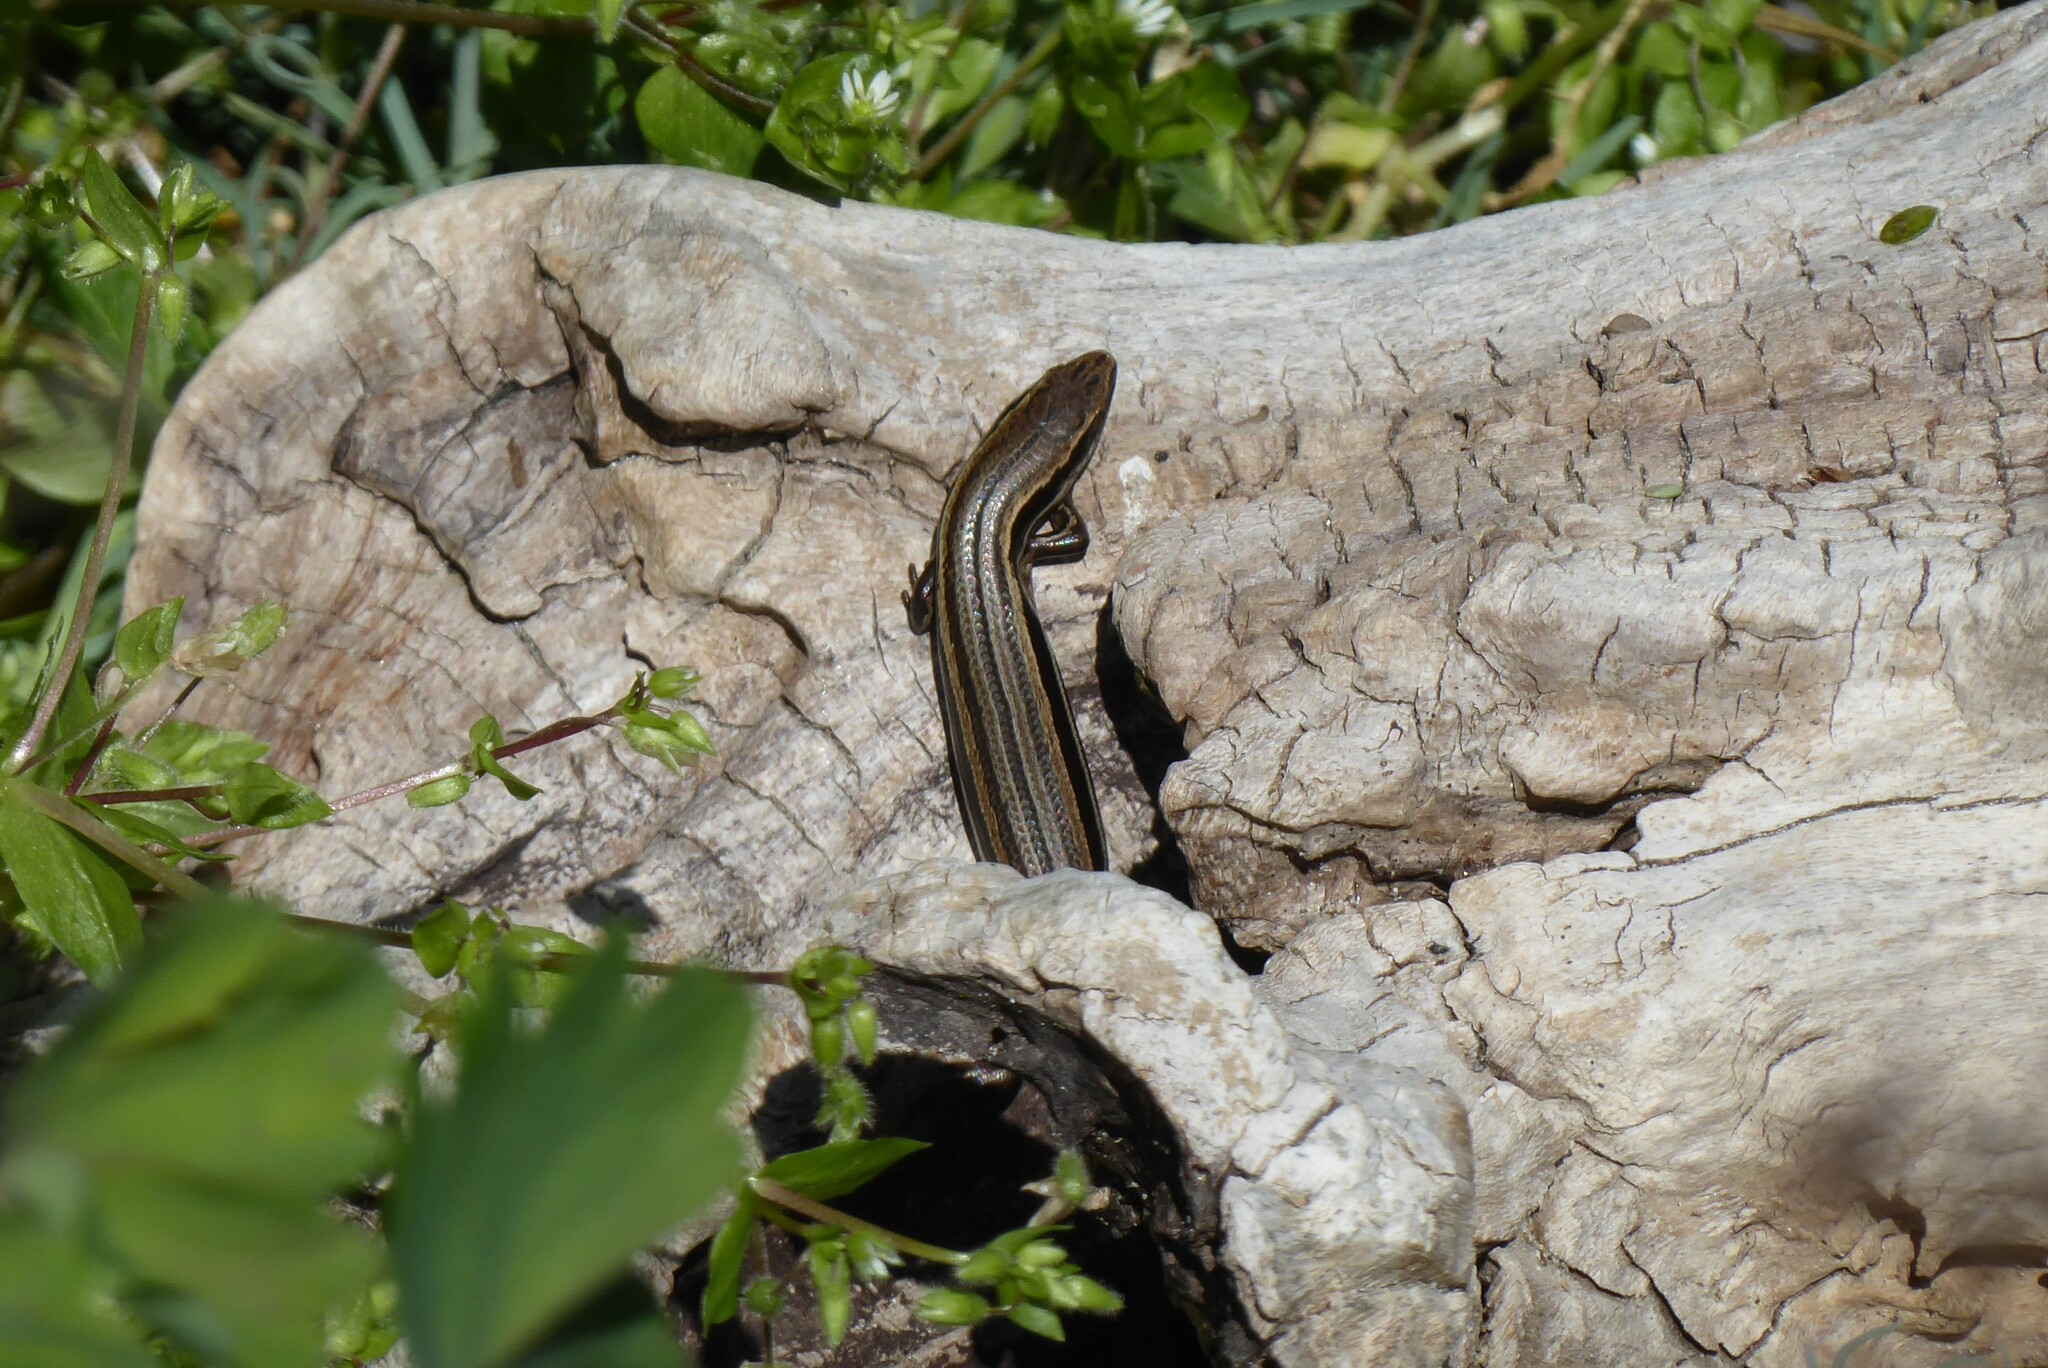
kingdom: Animalia
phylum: Chordata
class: Squamata
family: Scincidae
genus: Oligosoma
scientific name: Oligosoma polychroma
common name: Common new zealand skink
